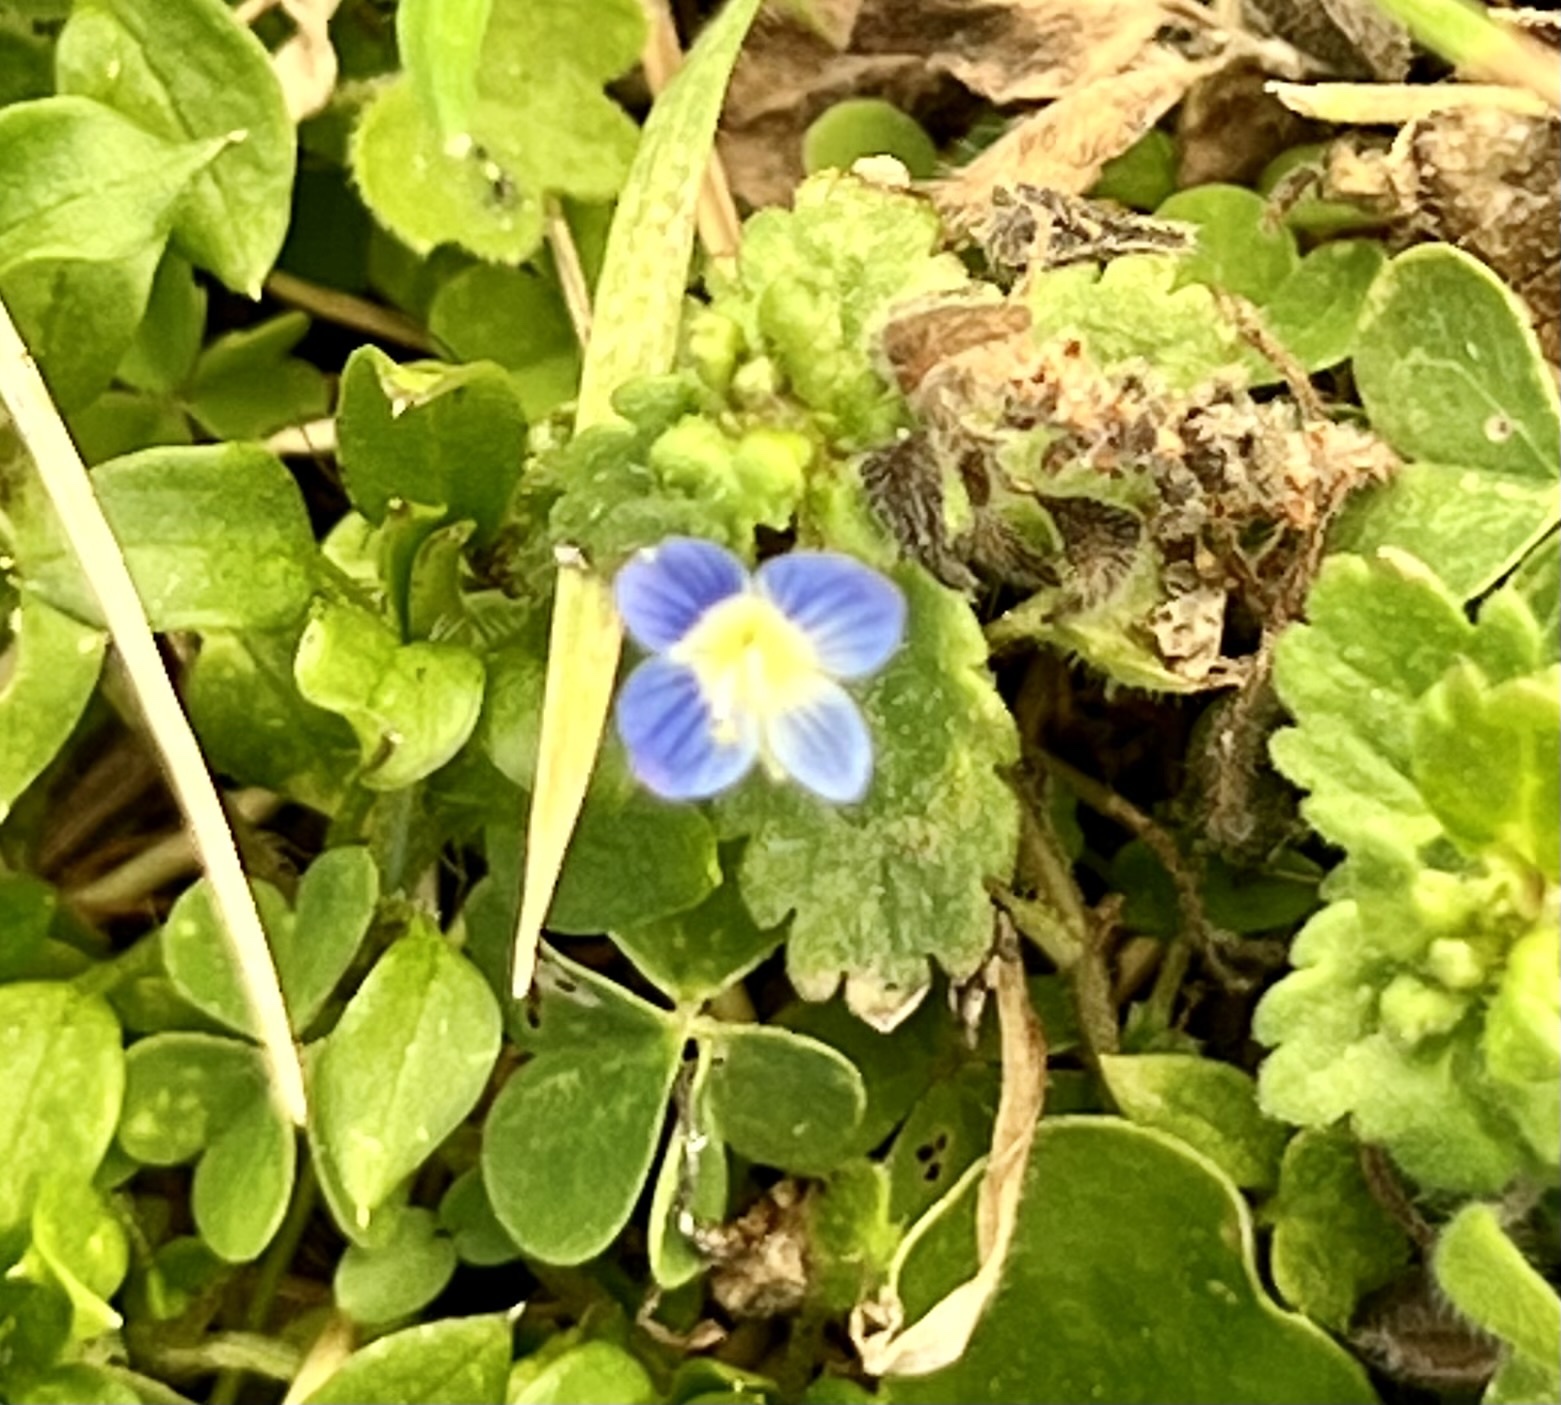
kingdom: Plantae
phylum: Tracheophyta
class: Magnoliopsida
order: Lamiales
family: Plantaginaceae
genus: Veronica
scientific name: Veronica persica
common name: Common field-speedwell
